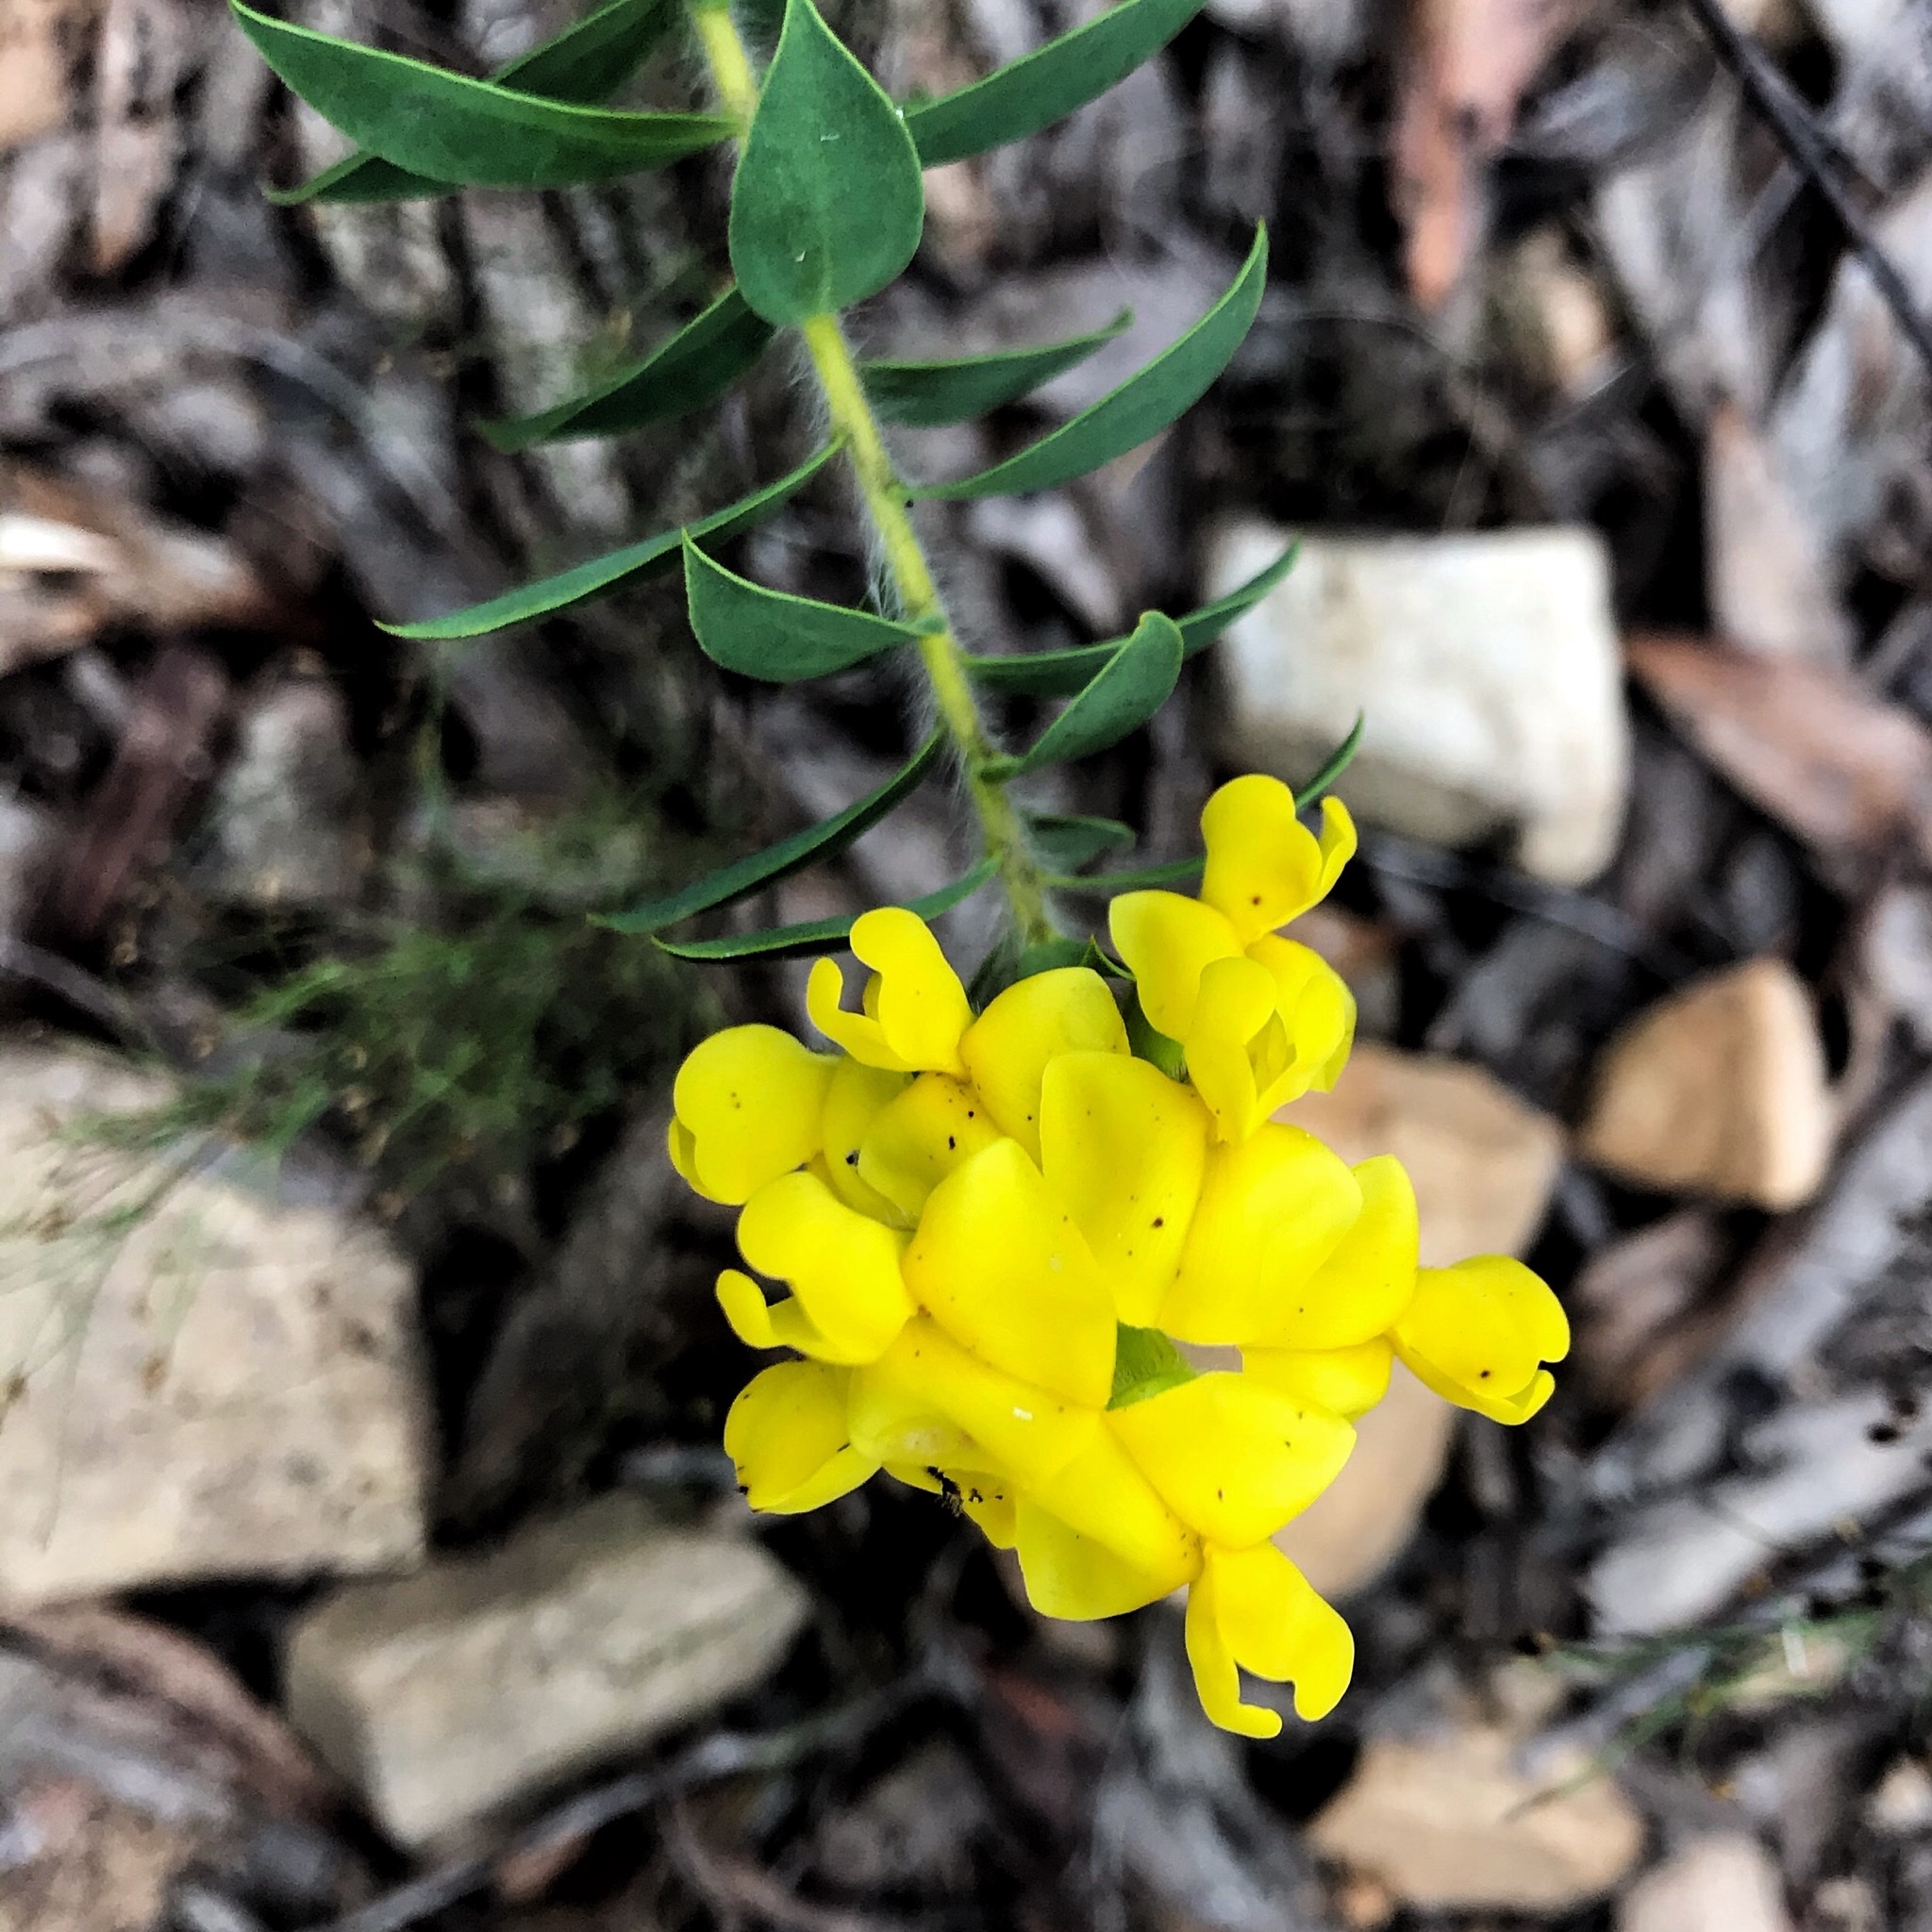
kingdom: Plantae
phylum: Tracheophyta
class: Magnoliopsida
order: Fabales
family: Fabaceae
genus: Liparia
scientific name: Liparia hirsuta
